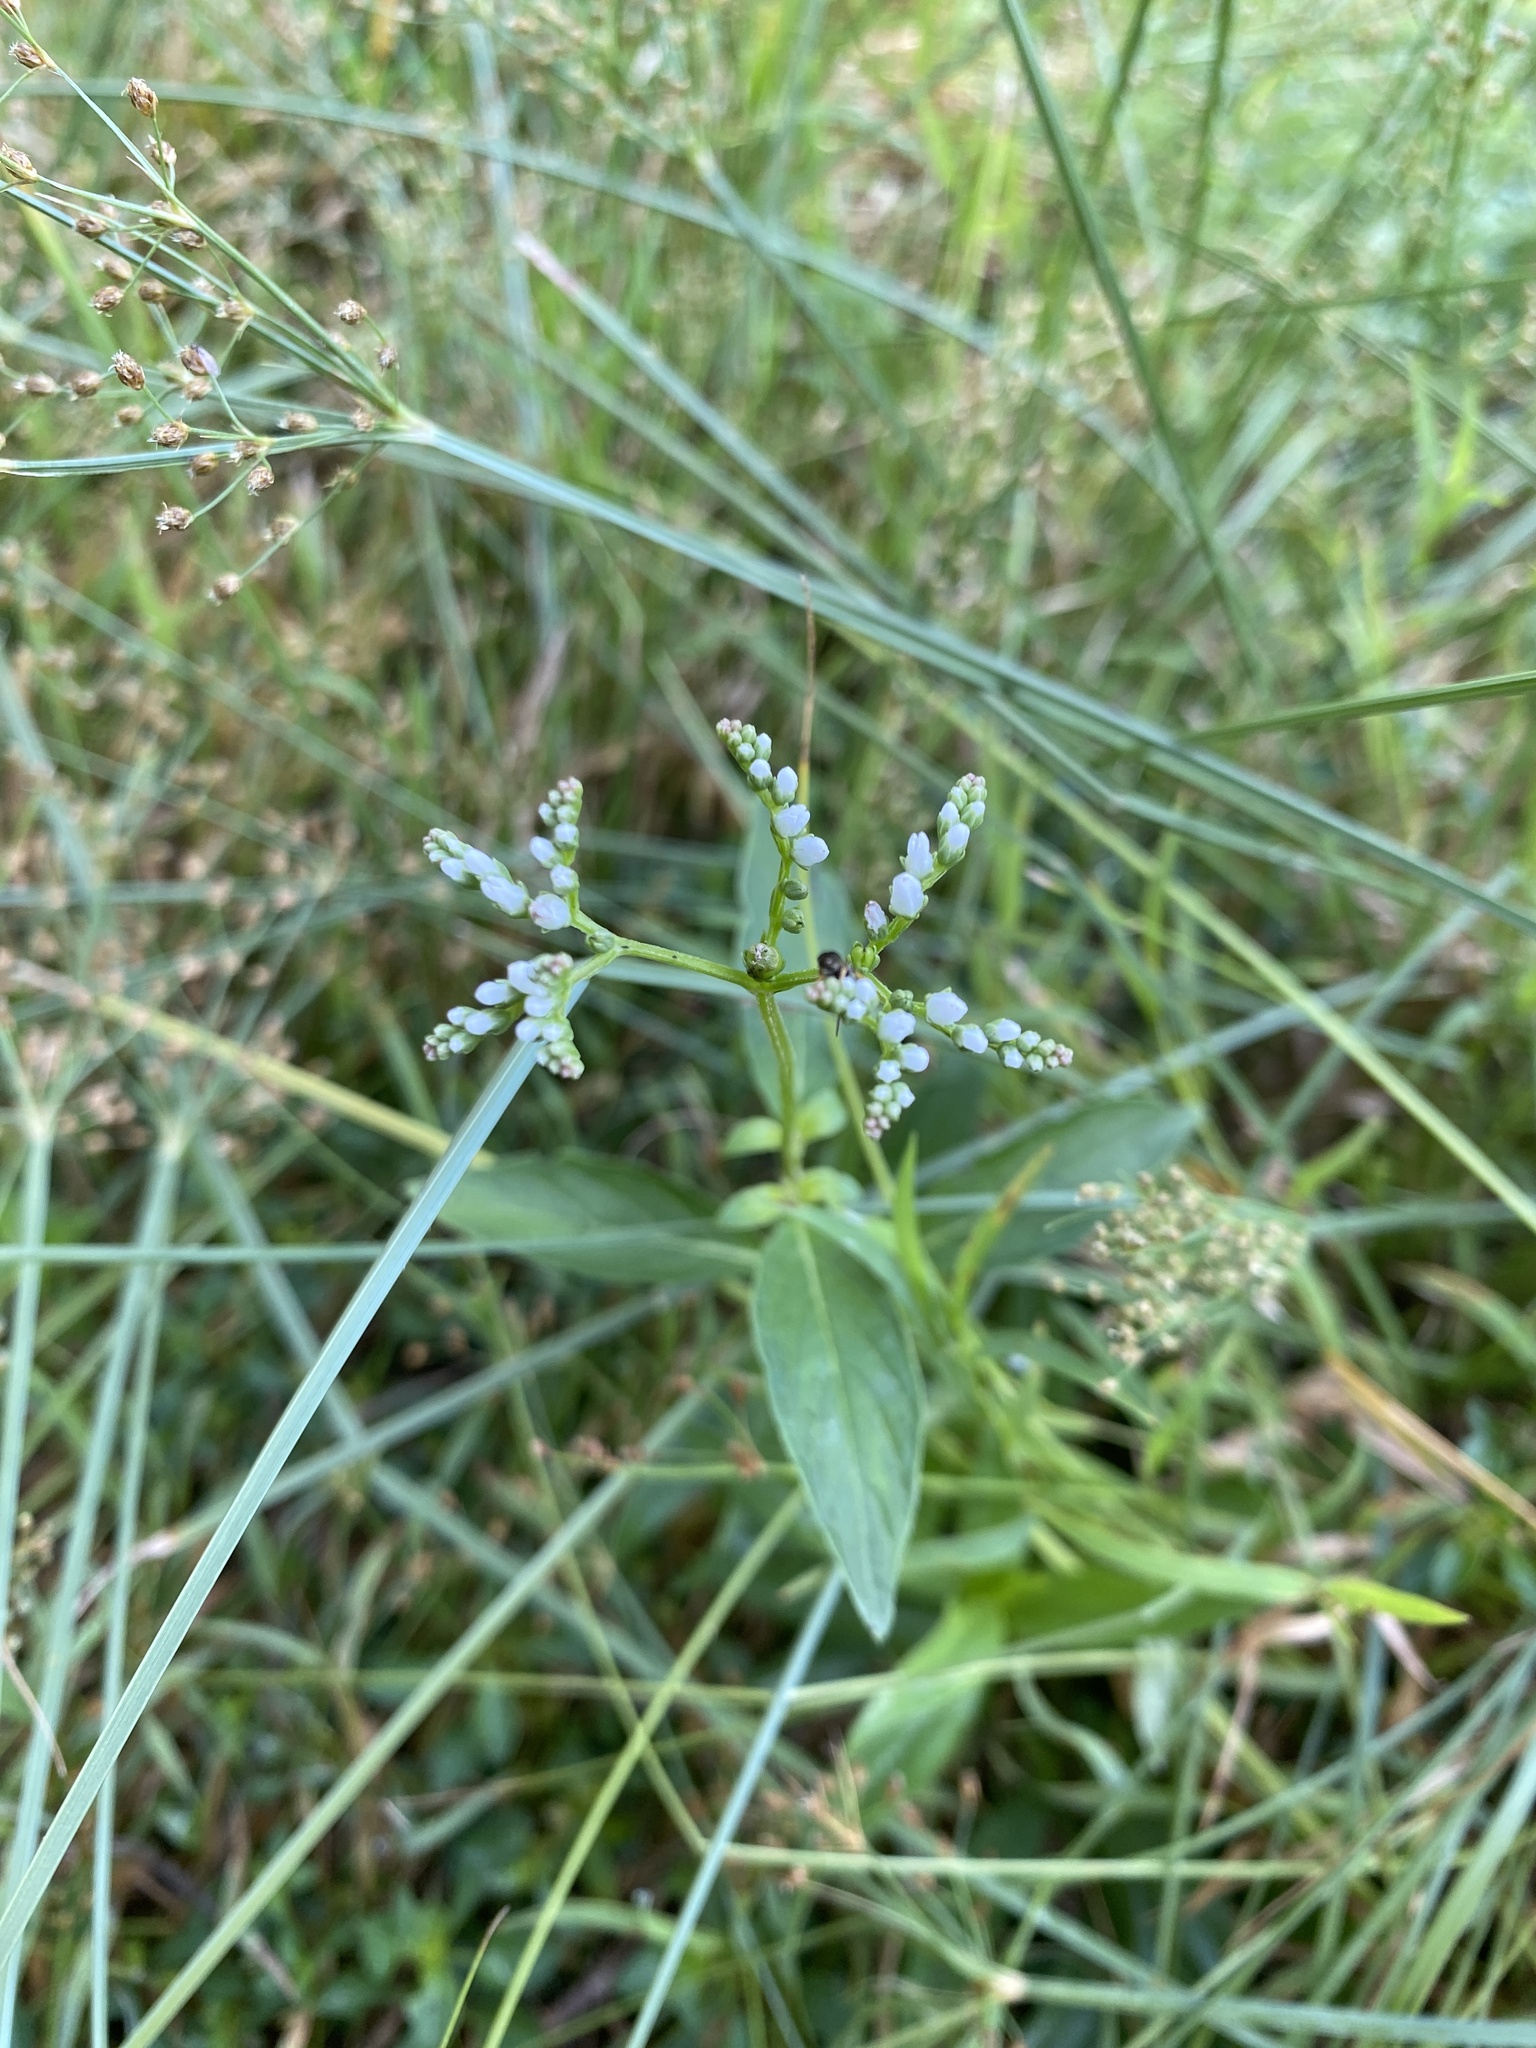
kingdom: Plantae
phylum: Tracheophyta
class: Magnoliopsida
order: Gentianales
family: Loganiaceae
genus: Mitreola
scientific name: Mitreola petiolata
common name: Lax hornpod
